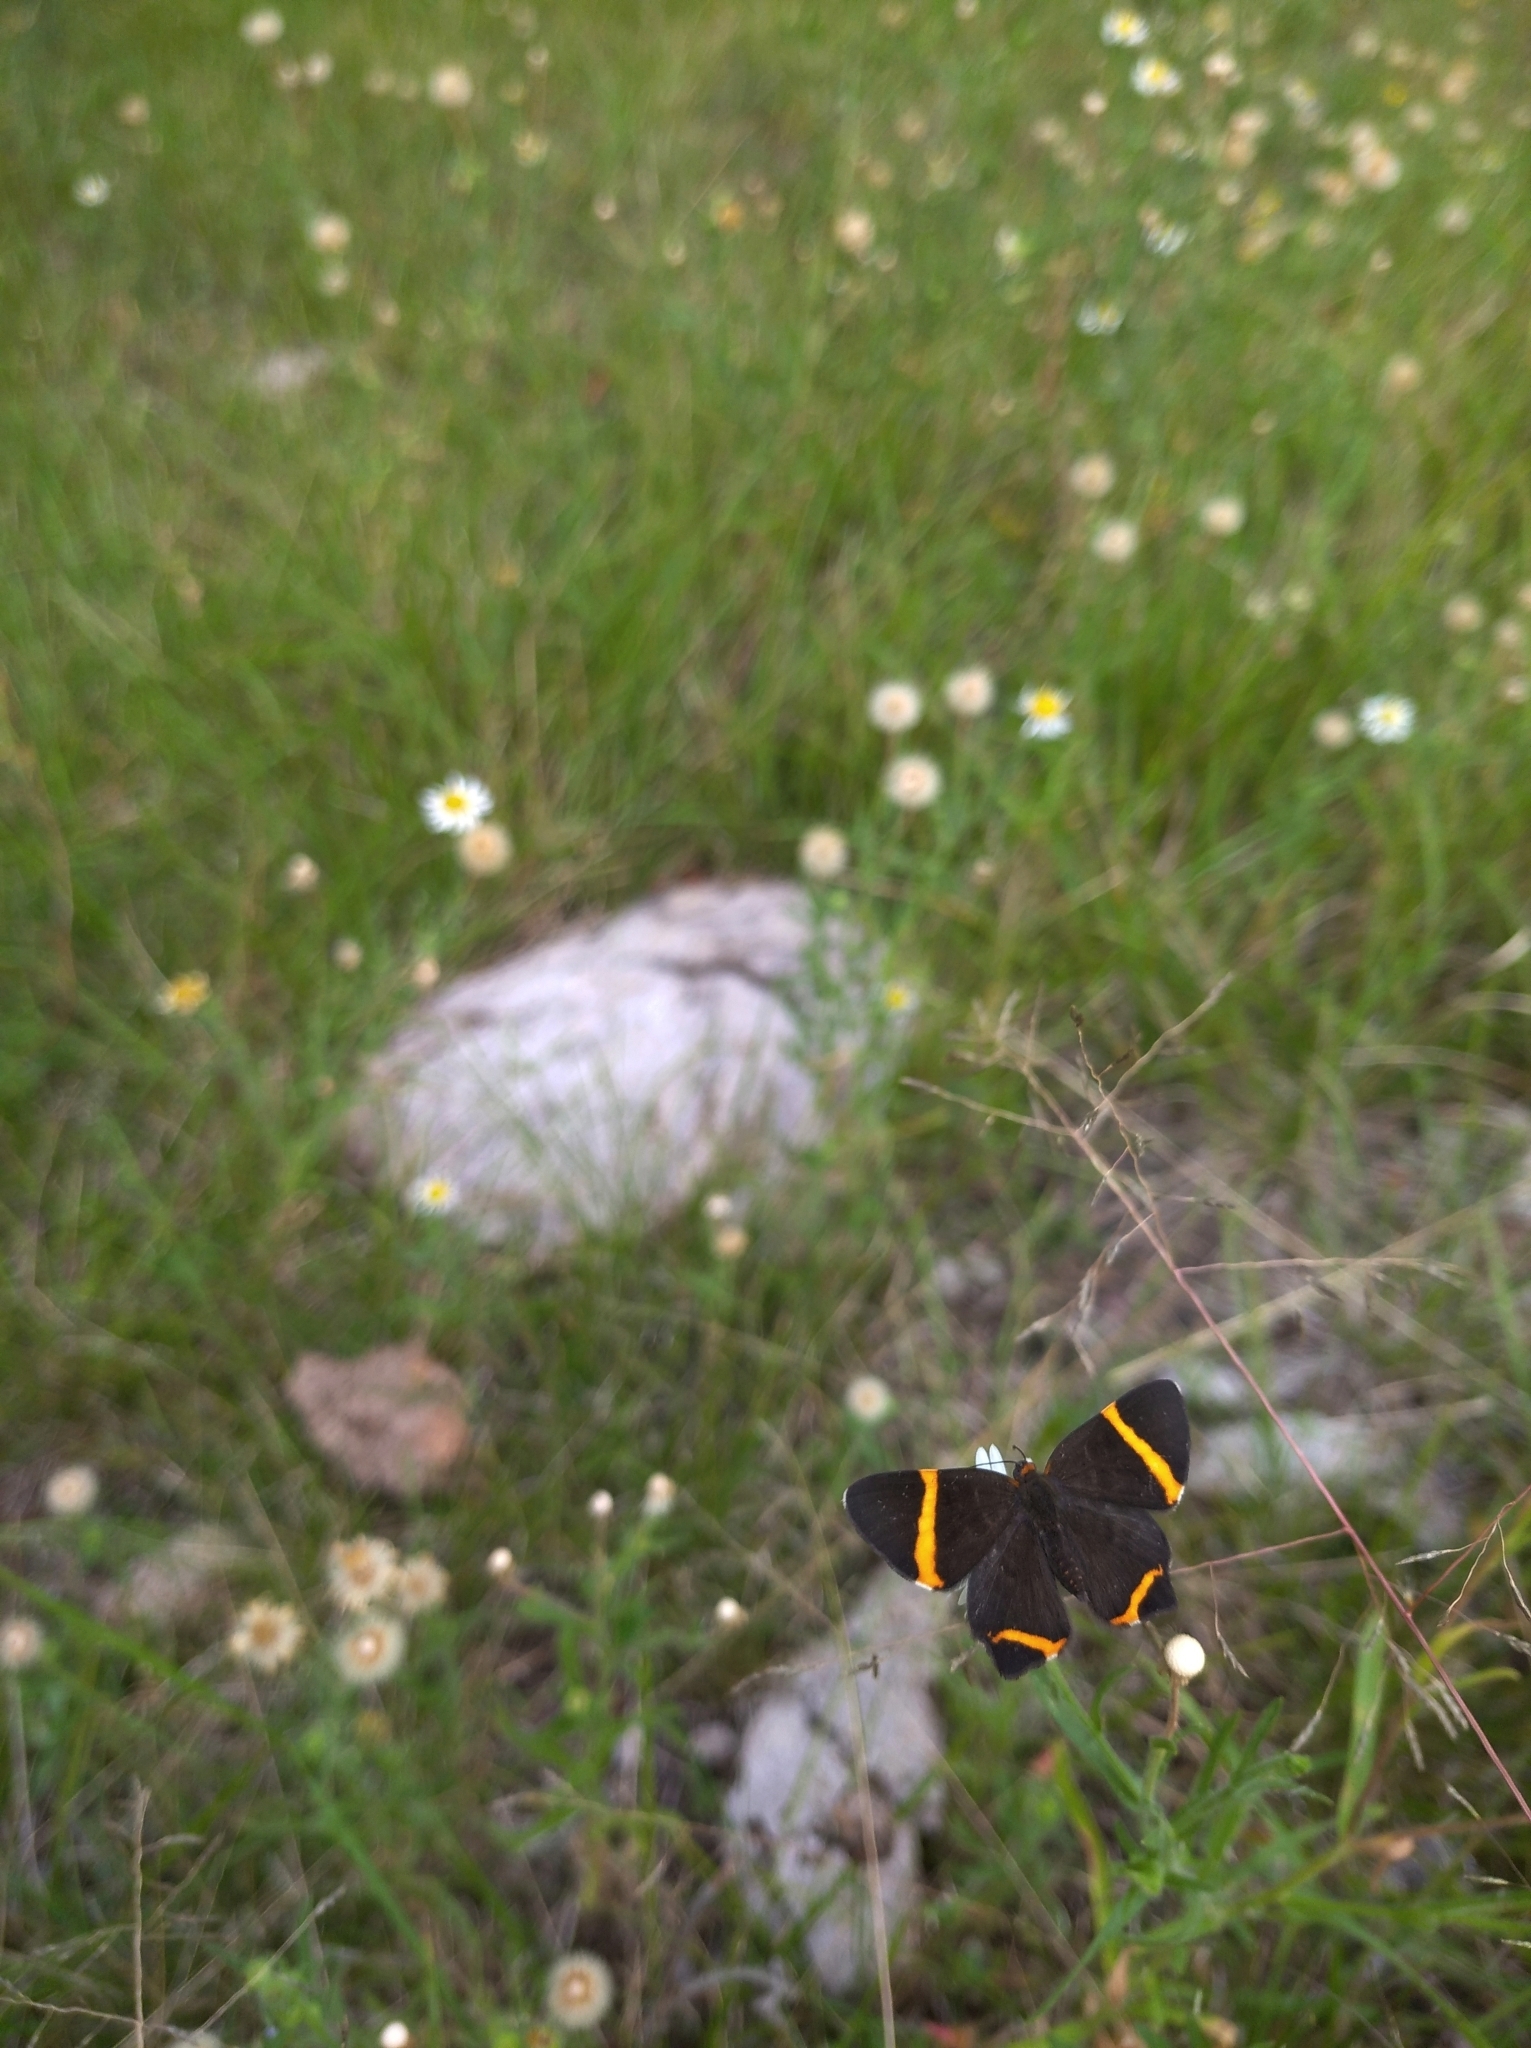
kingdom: Animalia
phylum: Arthropoda
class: Insecta
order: Lepidoptera
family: Riodinidae
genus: Riodina
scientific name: Riodina lysippoides
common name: Little dancer metalmark
